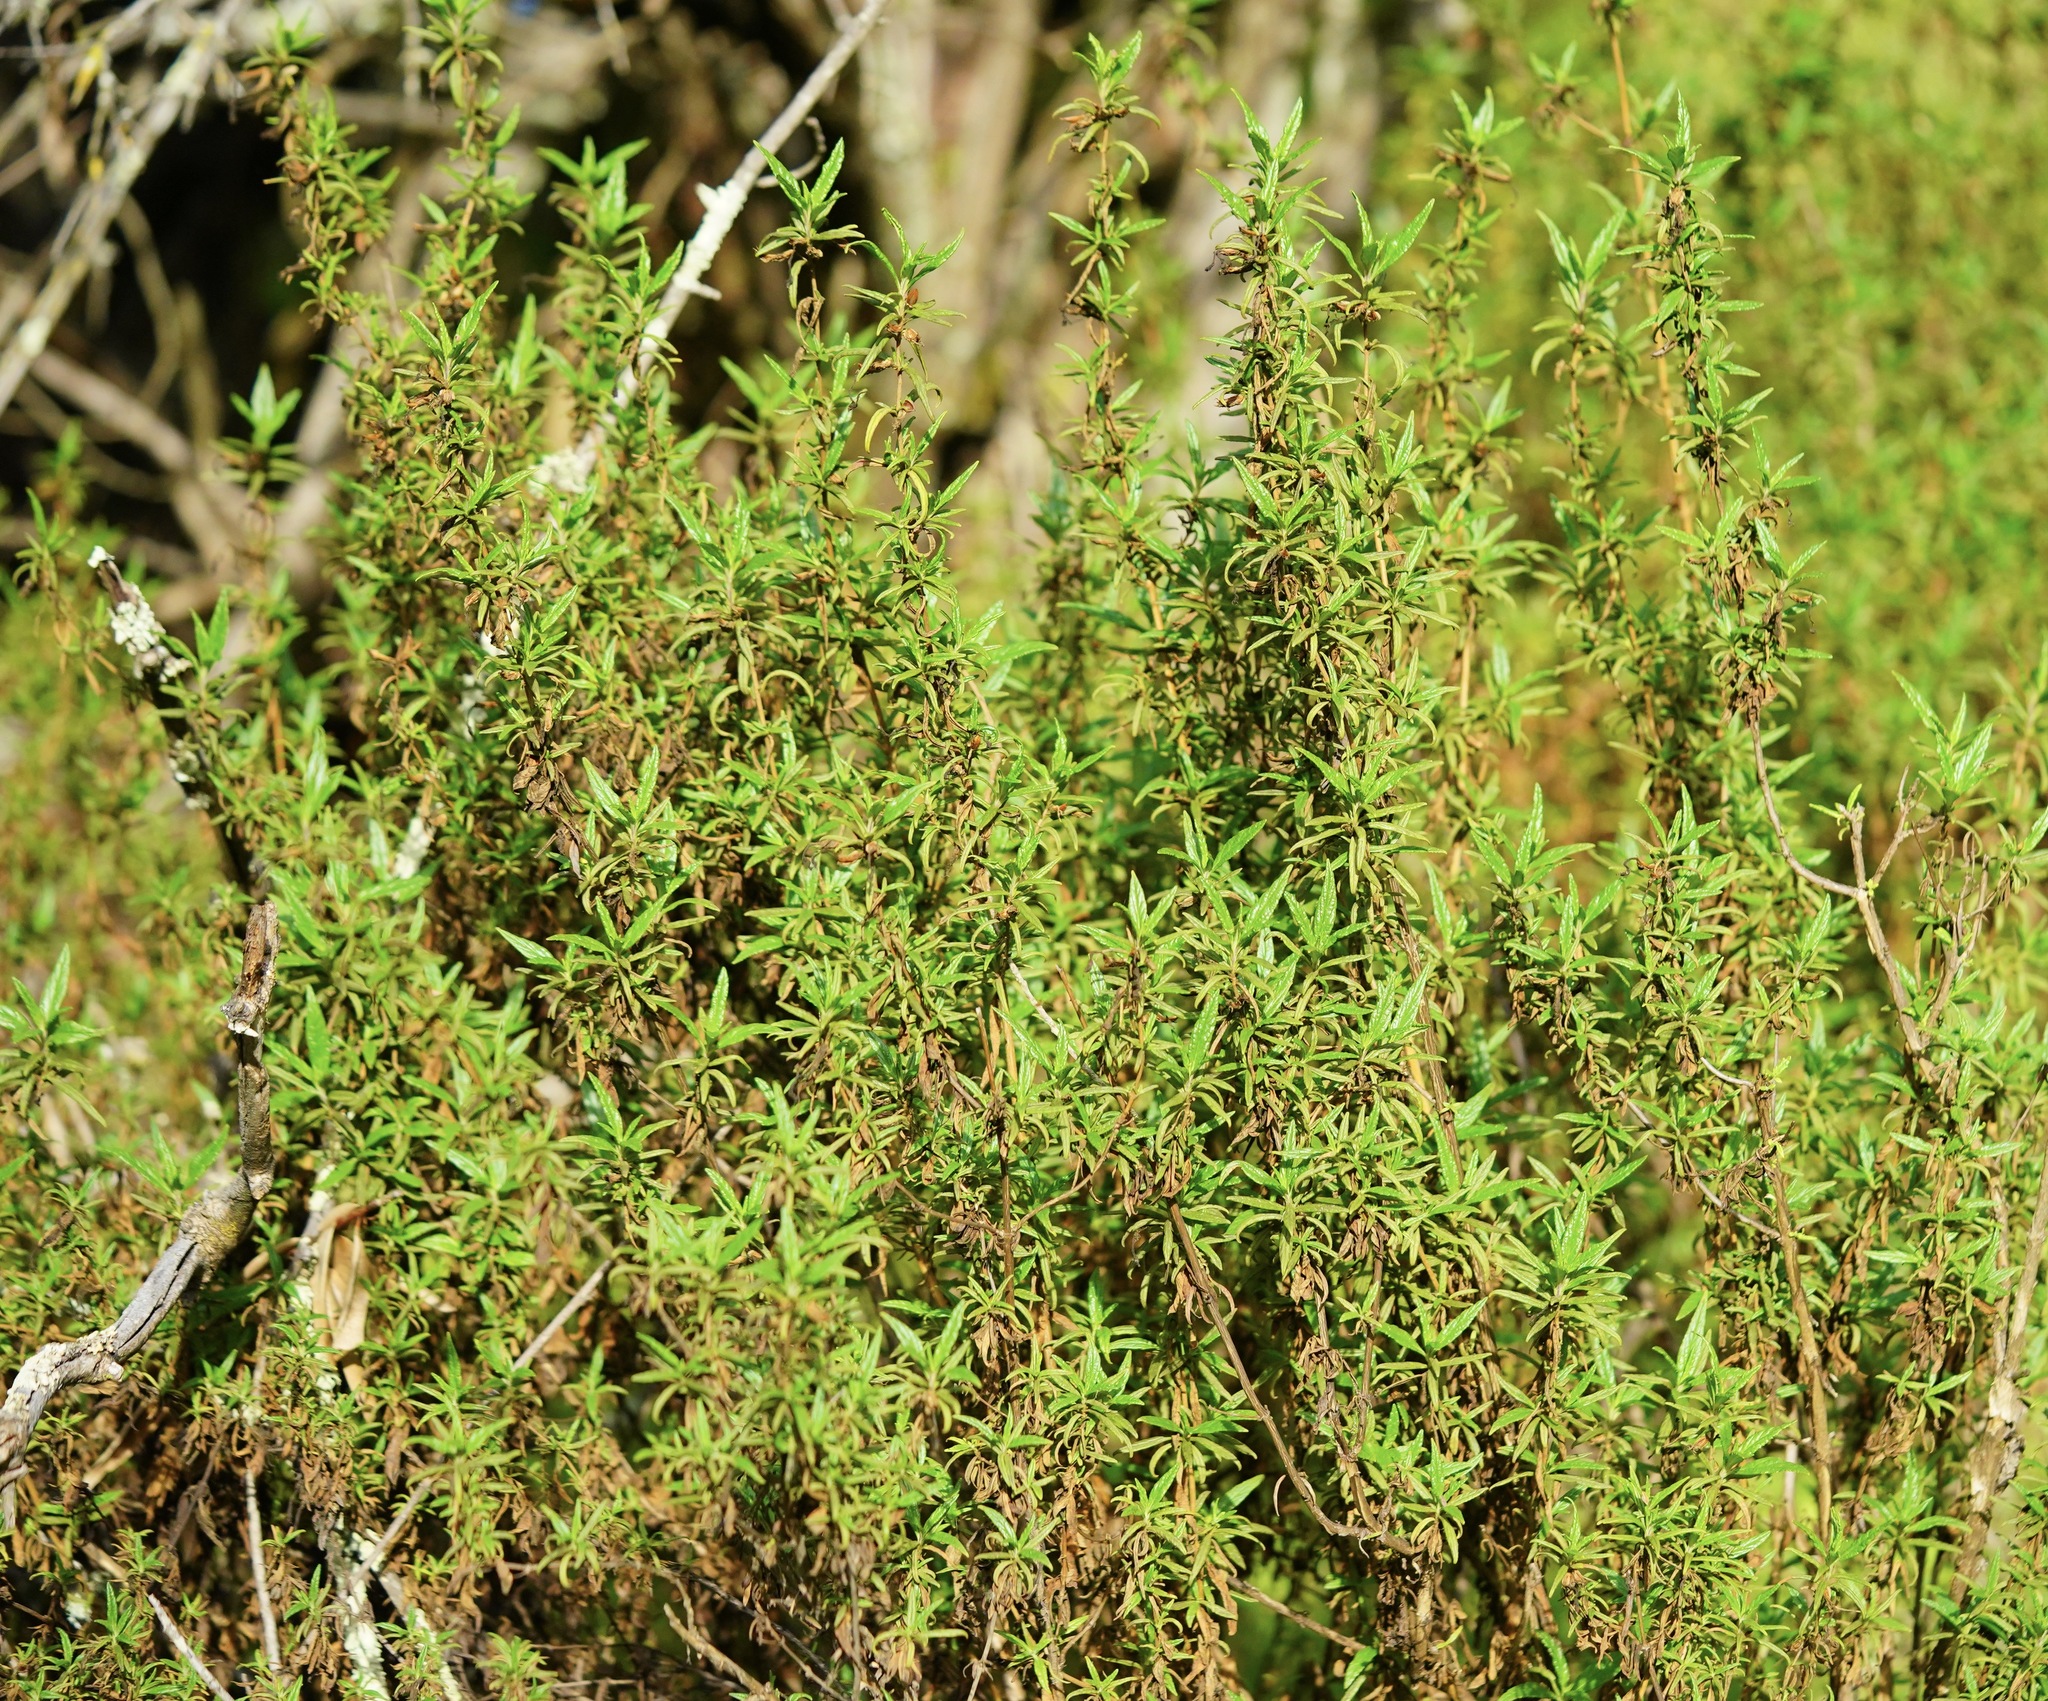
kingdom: Plantae
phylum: Tracheophyta
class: Magnoliopsida
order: Lamiales
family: Phrymaceae
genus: Diplacus
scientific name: Diplacus aurantiacus
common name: Bush monkey-flower
